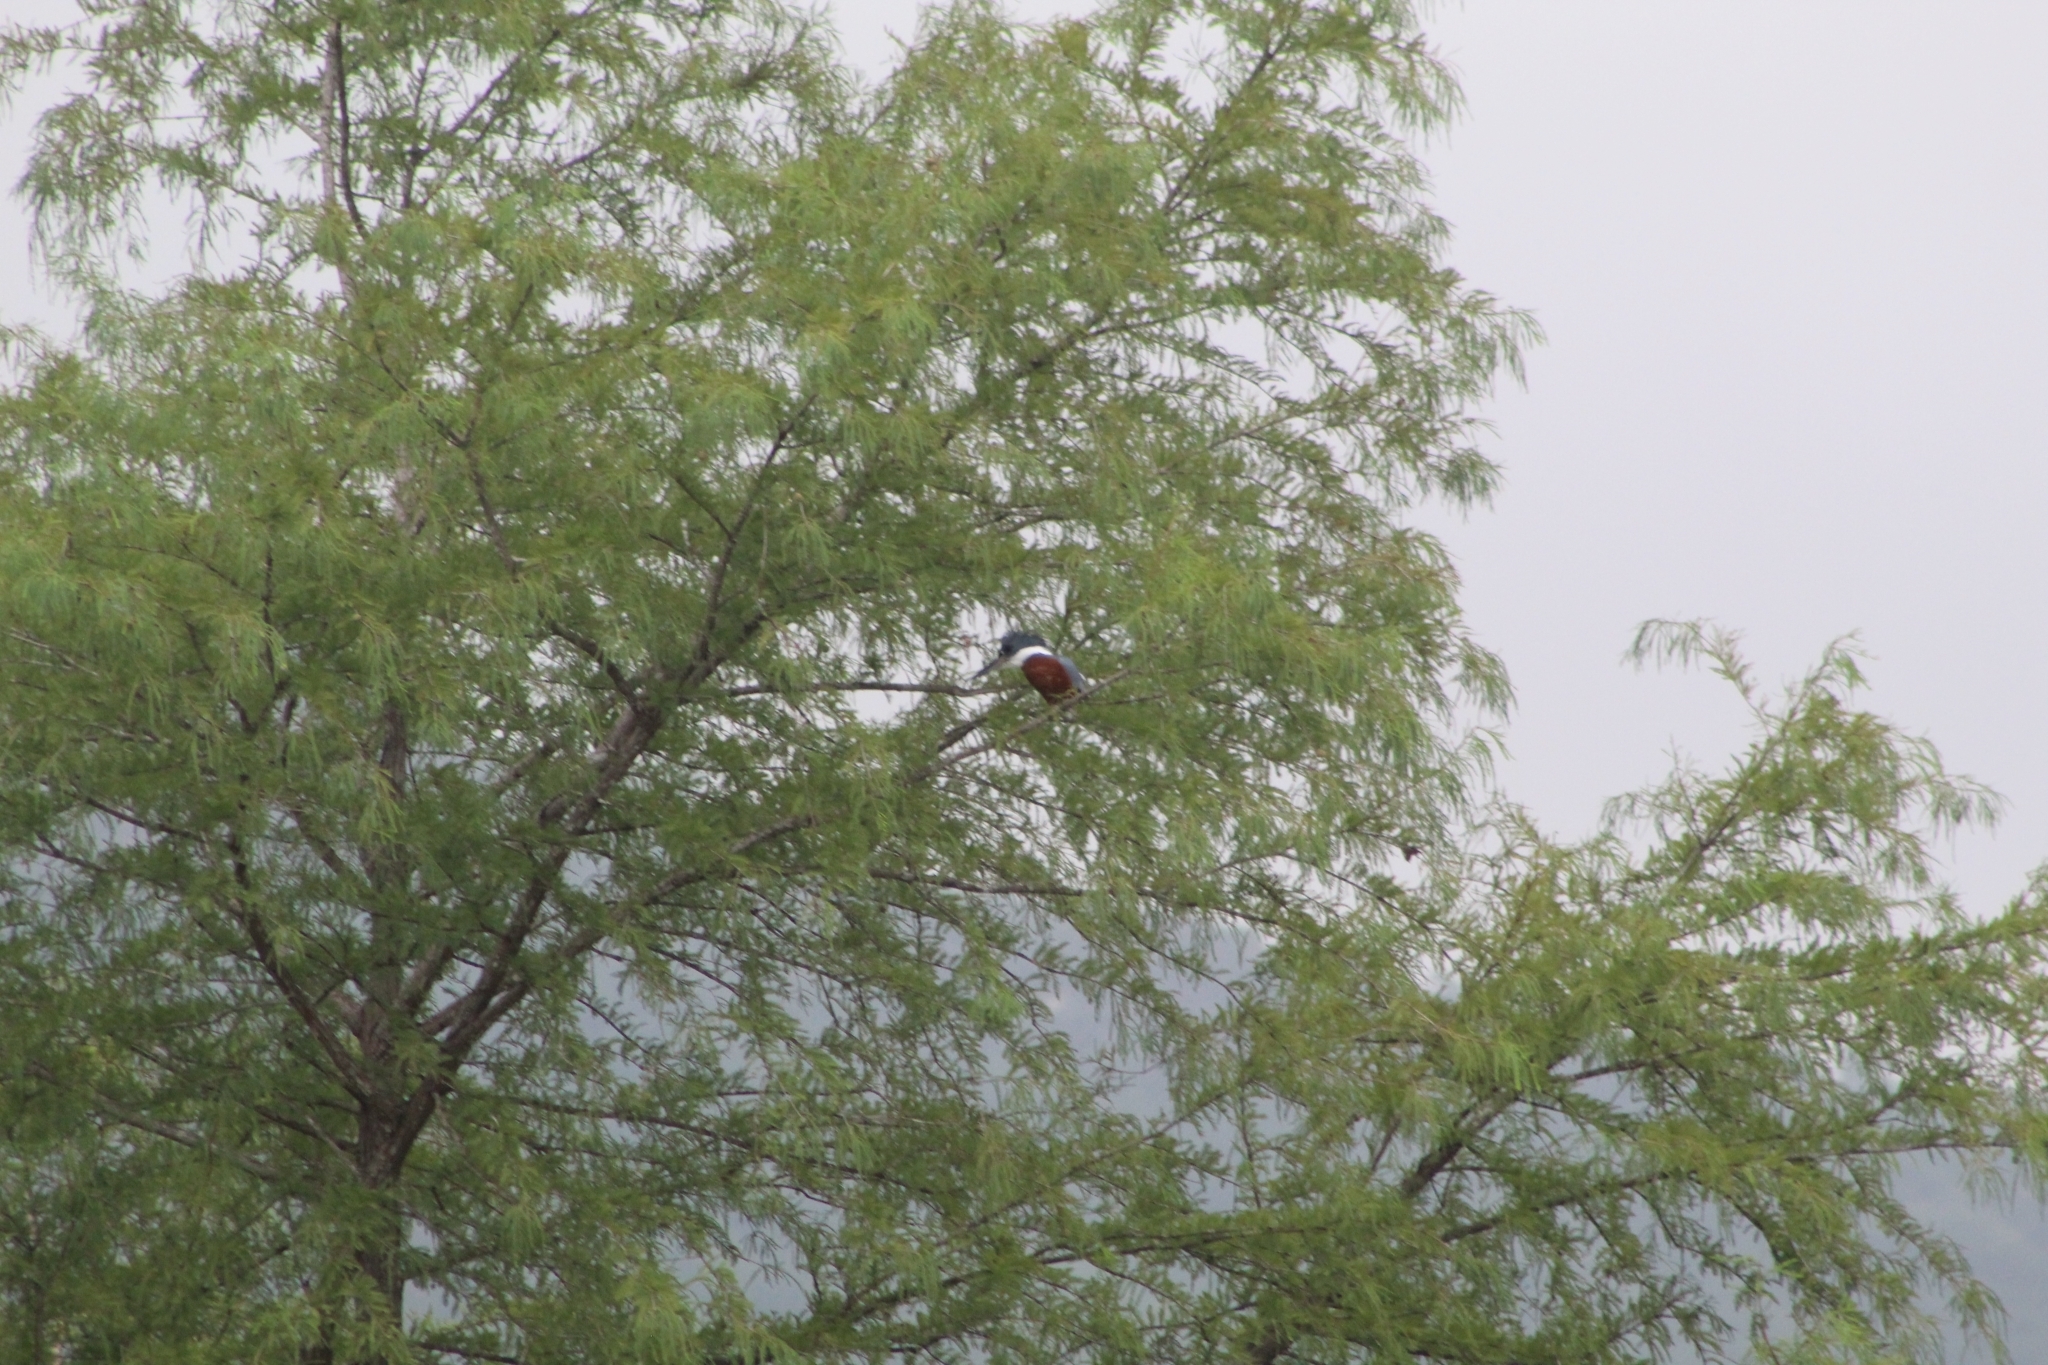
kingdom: Animalia
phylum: Chordata
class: Aves
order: Coraciiformes
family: Alcedinidae
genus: Megaceryle
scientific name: Megaceryle torquata
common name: Ringed kingfisher
